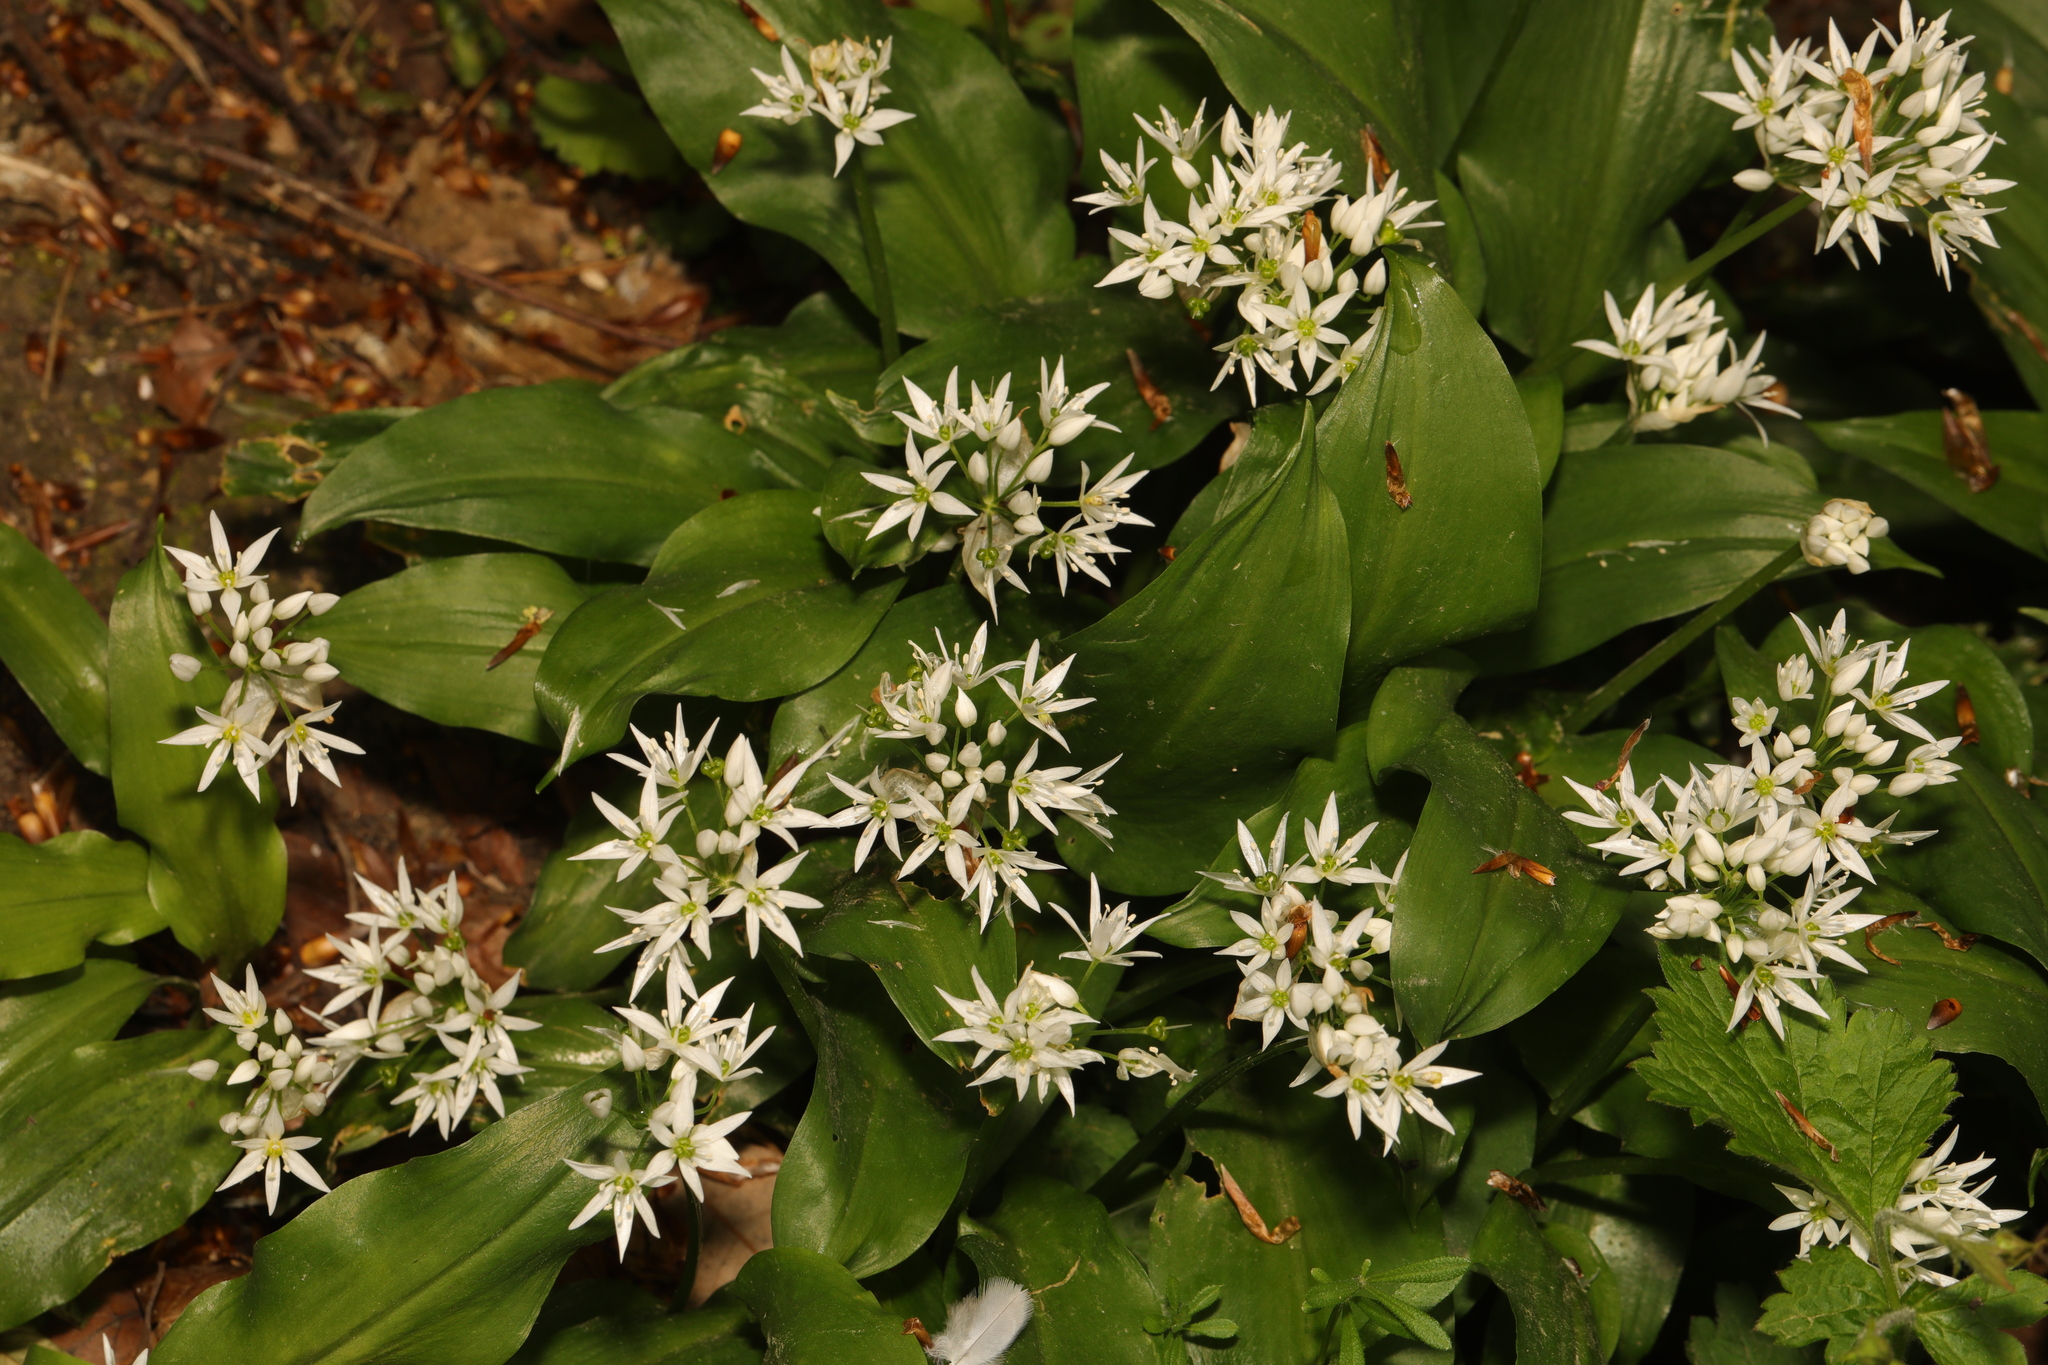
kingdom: Plantae
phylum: Tracheophyta
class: Liliopsida
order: Asparagales
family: Amaryllidaceae
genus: Allium
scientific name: Allium ursinum
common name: Ramsons
